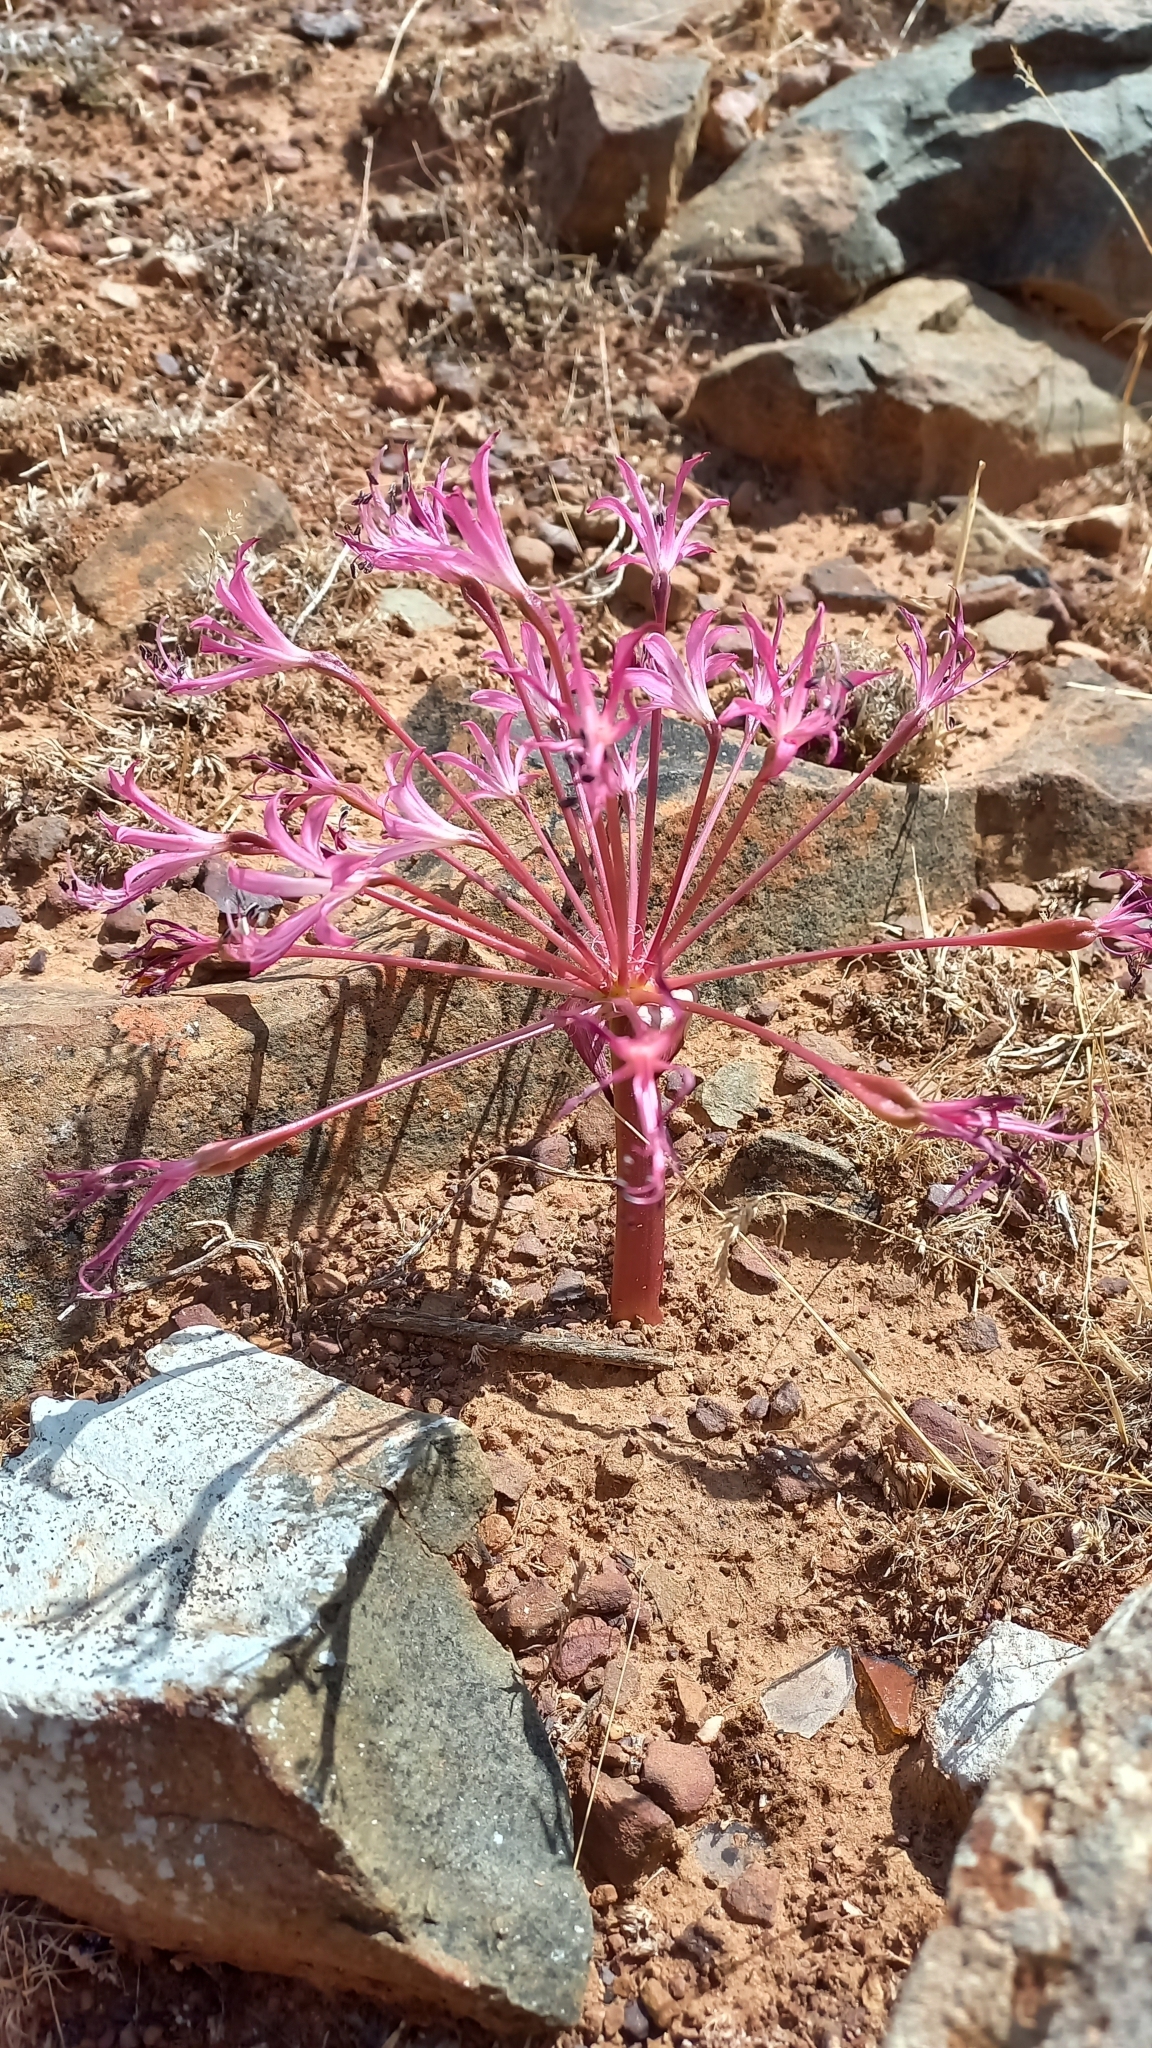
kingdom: Plantae
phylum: Tracheophyta
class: Liliopsida
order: Asparagales
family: Amaryllidaceae
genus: Brunsvigia
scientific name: Brunsvigia nervosa
